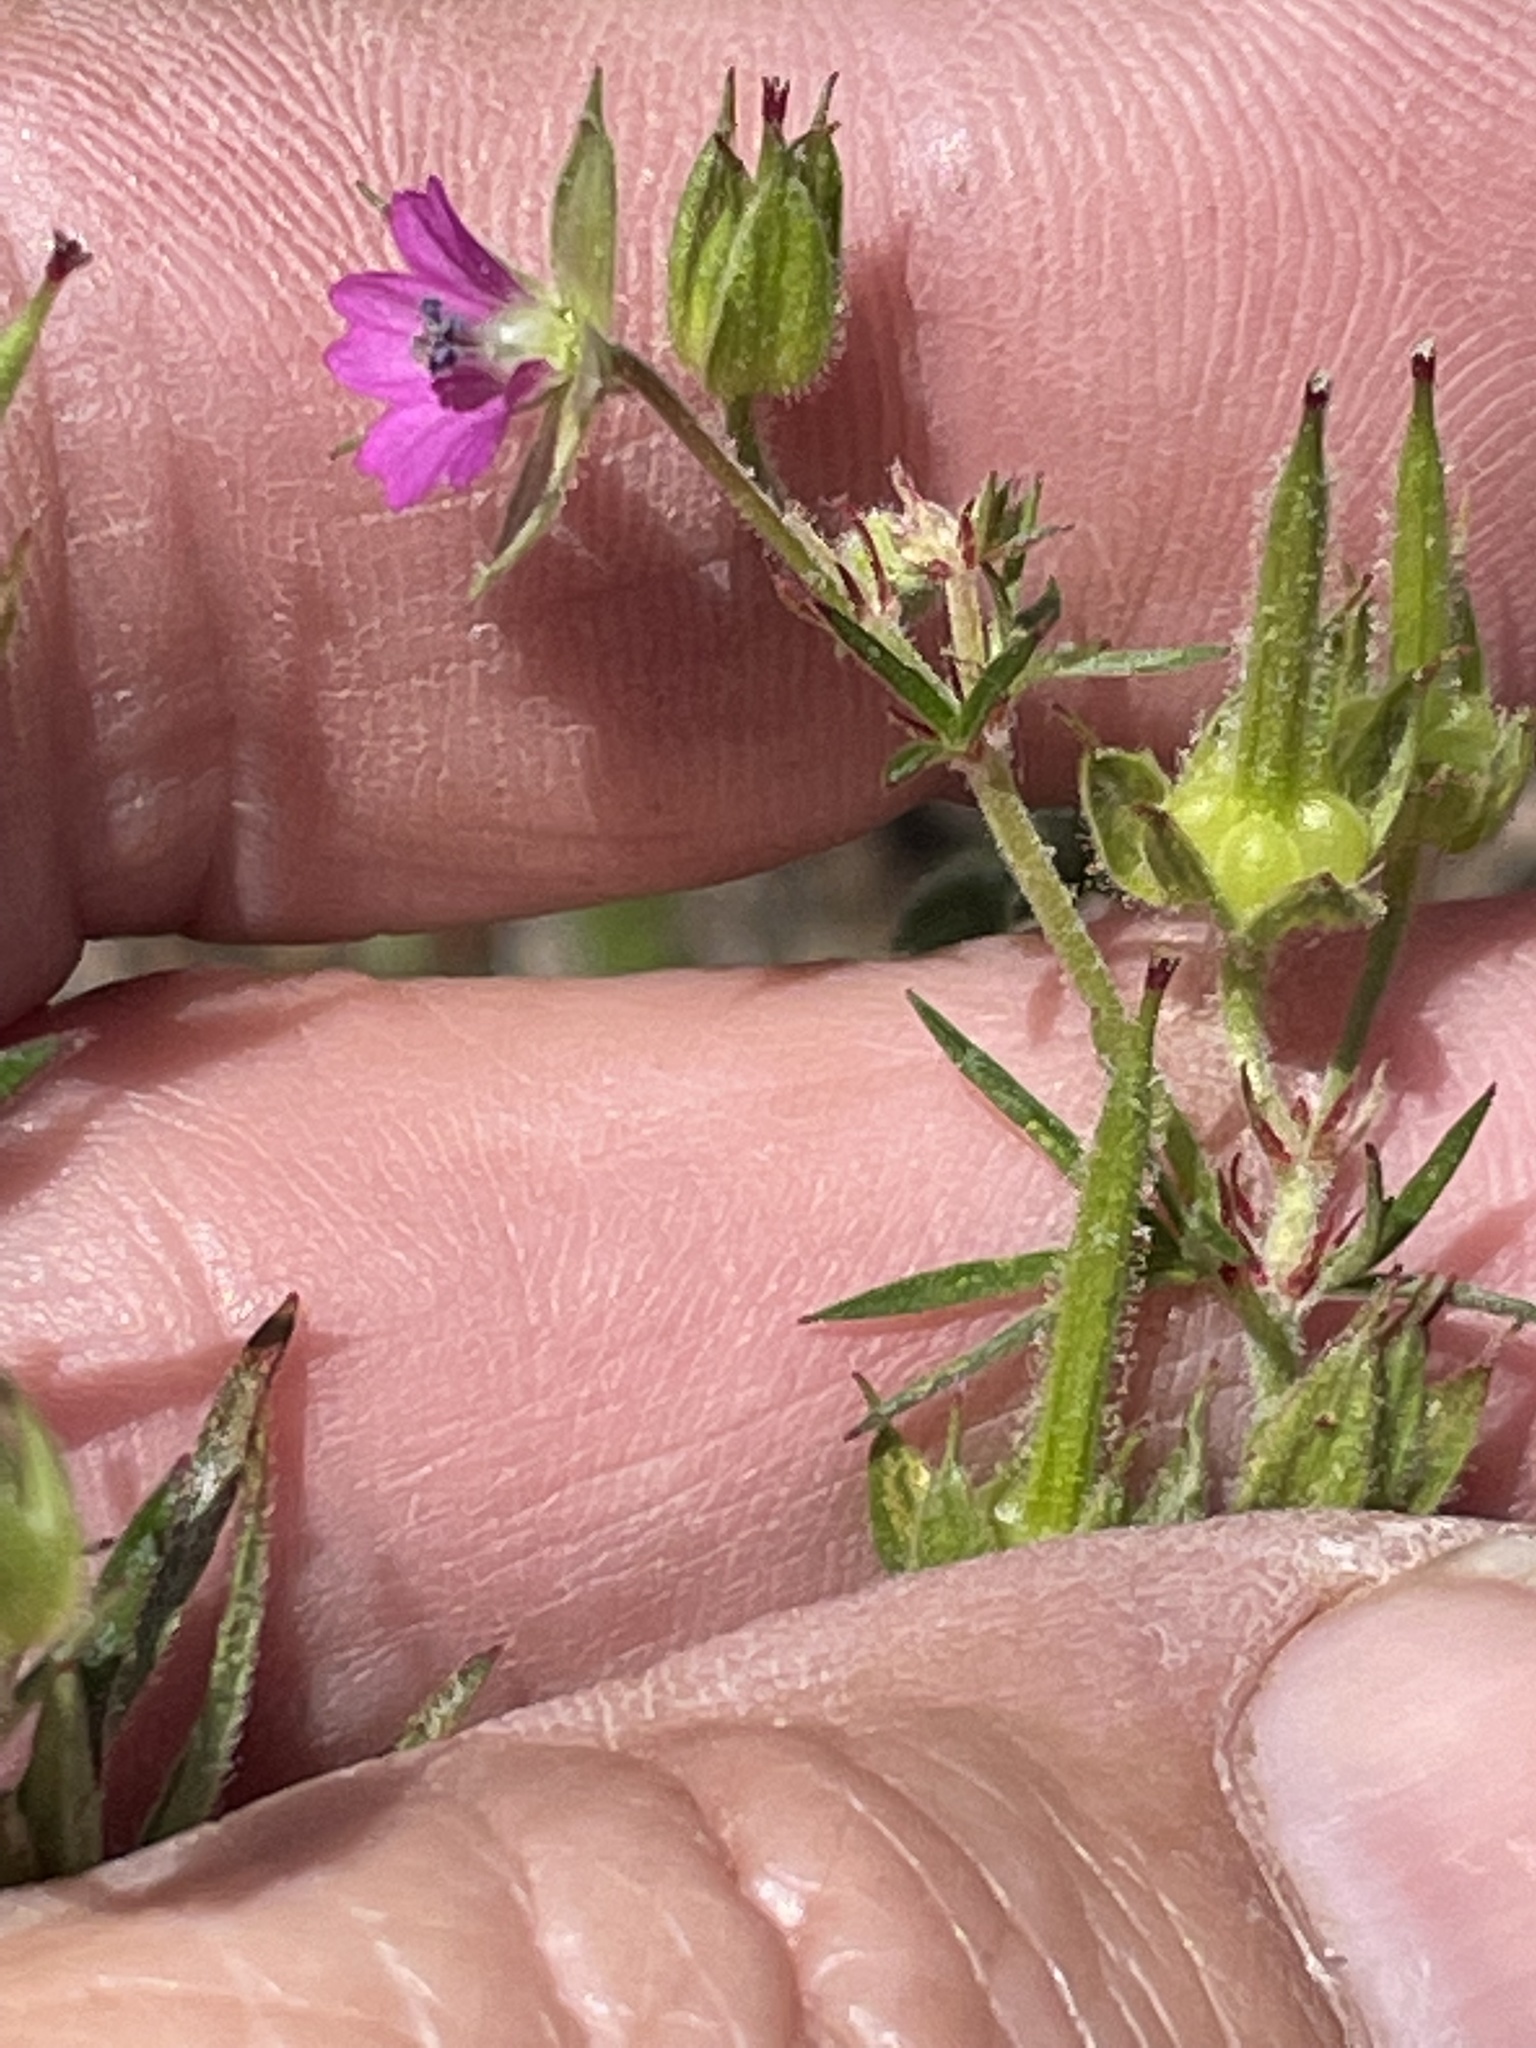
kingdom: Plantae
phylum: Tracheophyta
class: Magnoliopsida
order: Geraniales
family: Geraniaceae
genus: Geranium
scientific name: Geranium dissectum
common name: Cut-leaved crane's-bill
